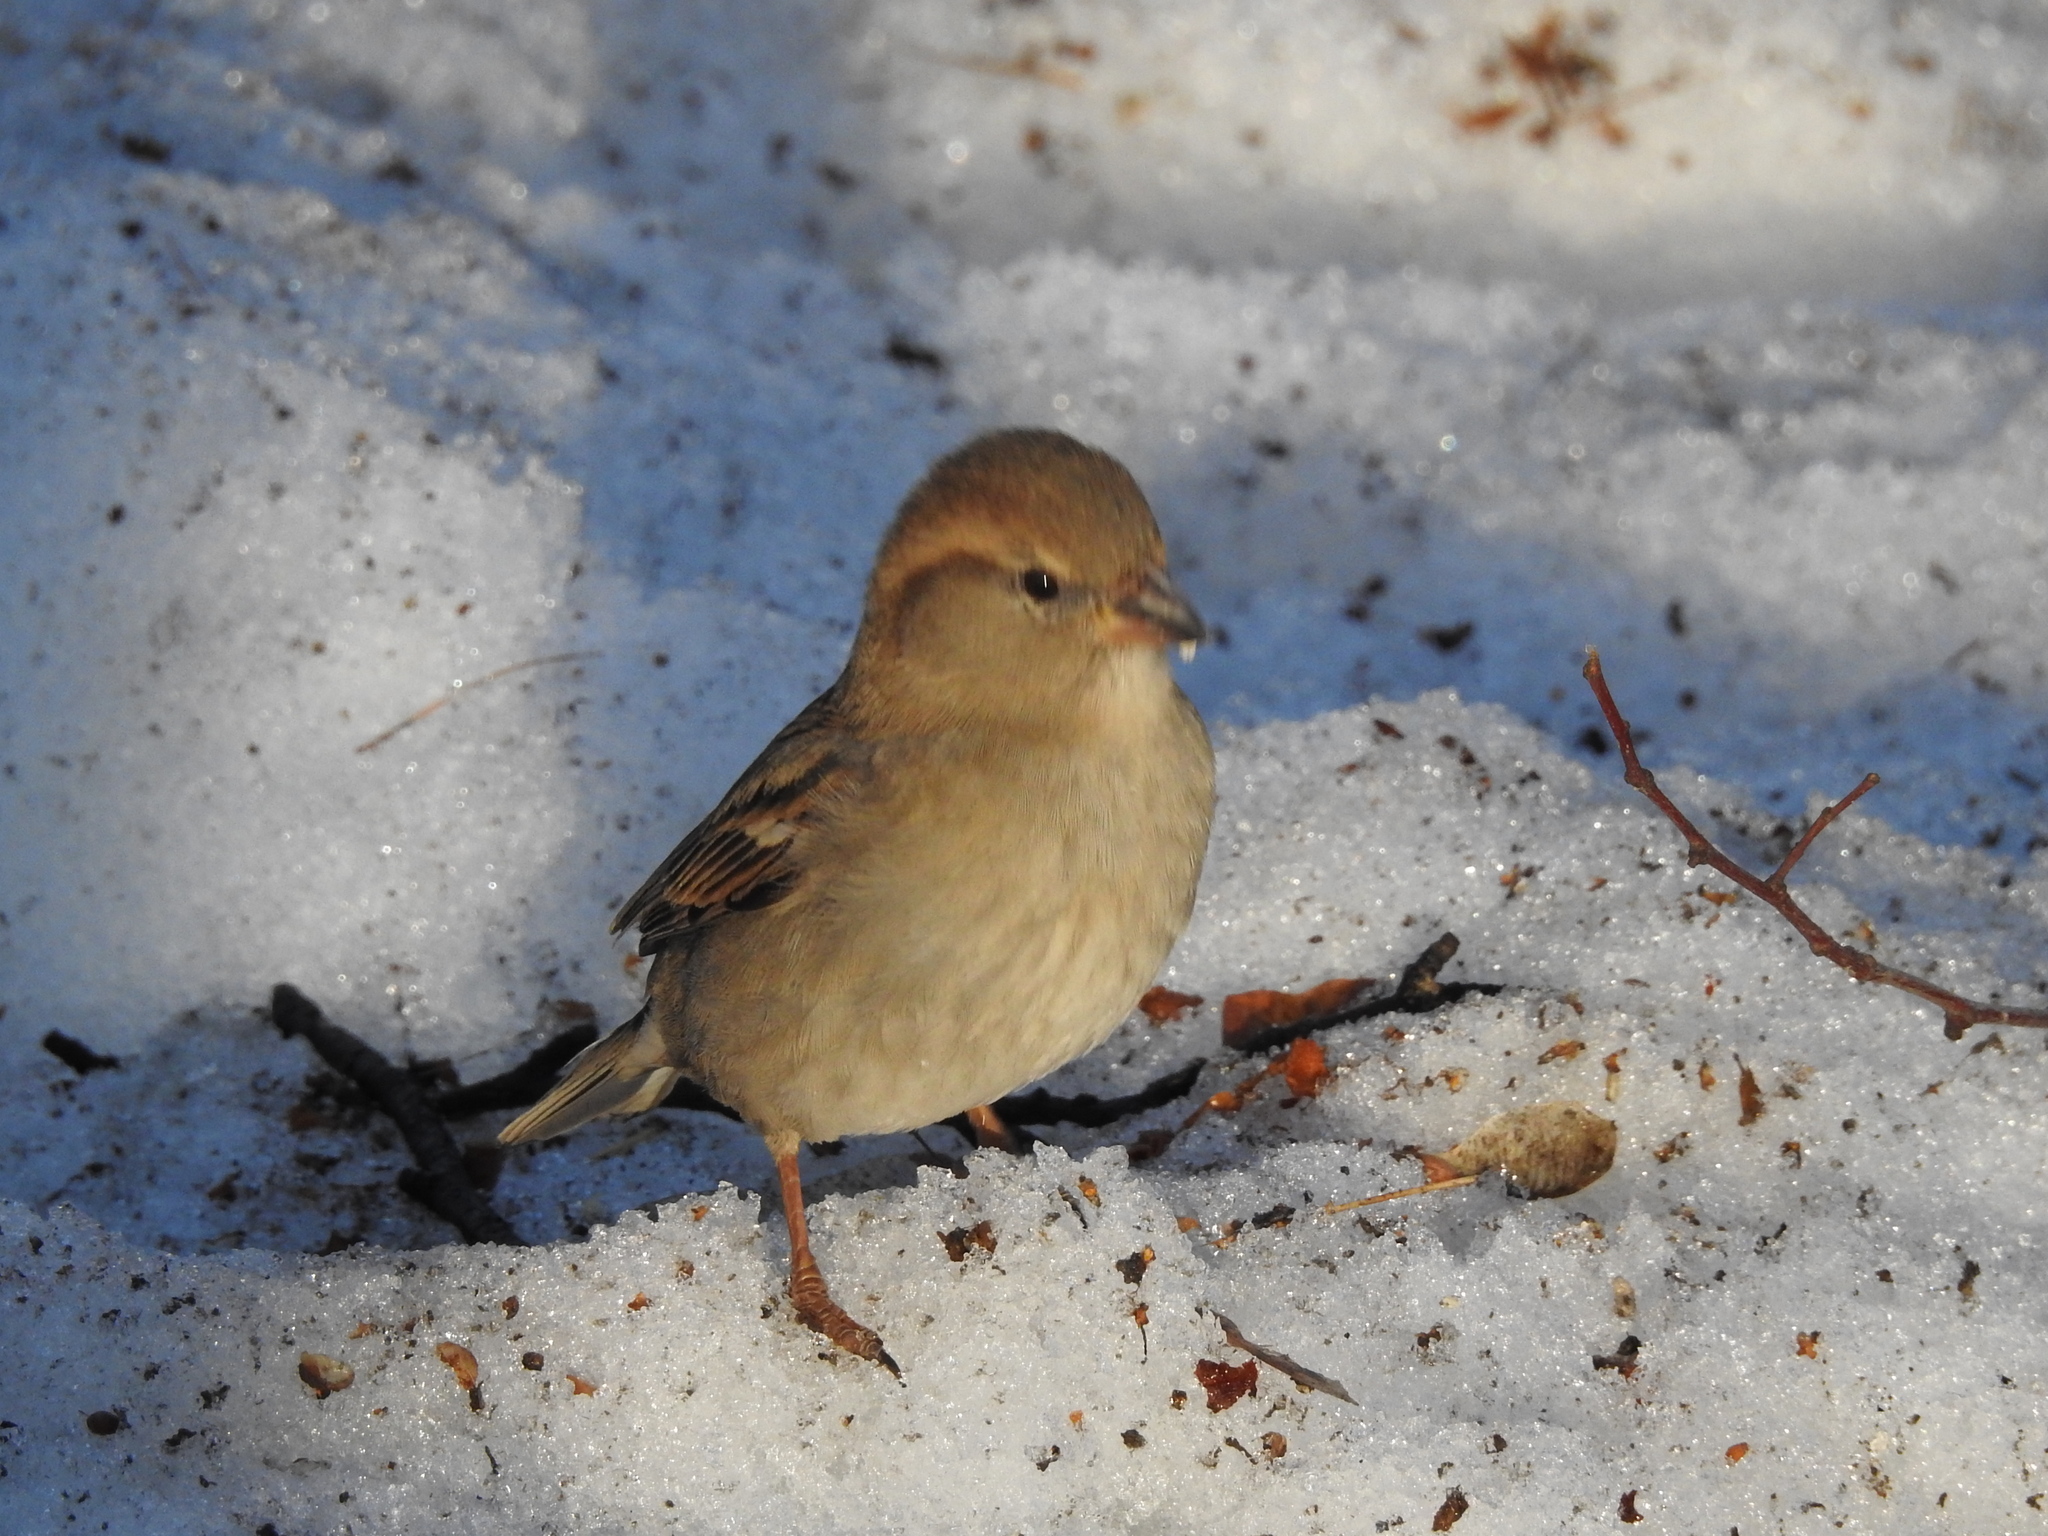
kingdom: Animalia
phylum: Chordata
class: Aves
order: Passeriformes
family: Passeridae
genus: Passer
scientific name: Passer domesticus
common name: House sparrow
